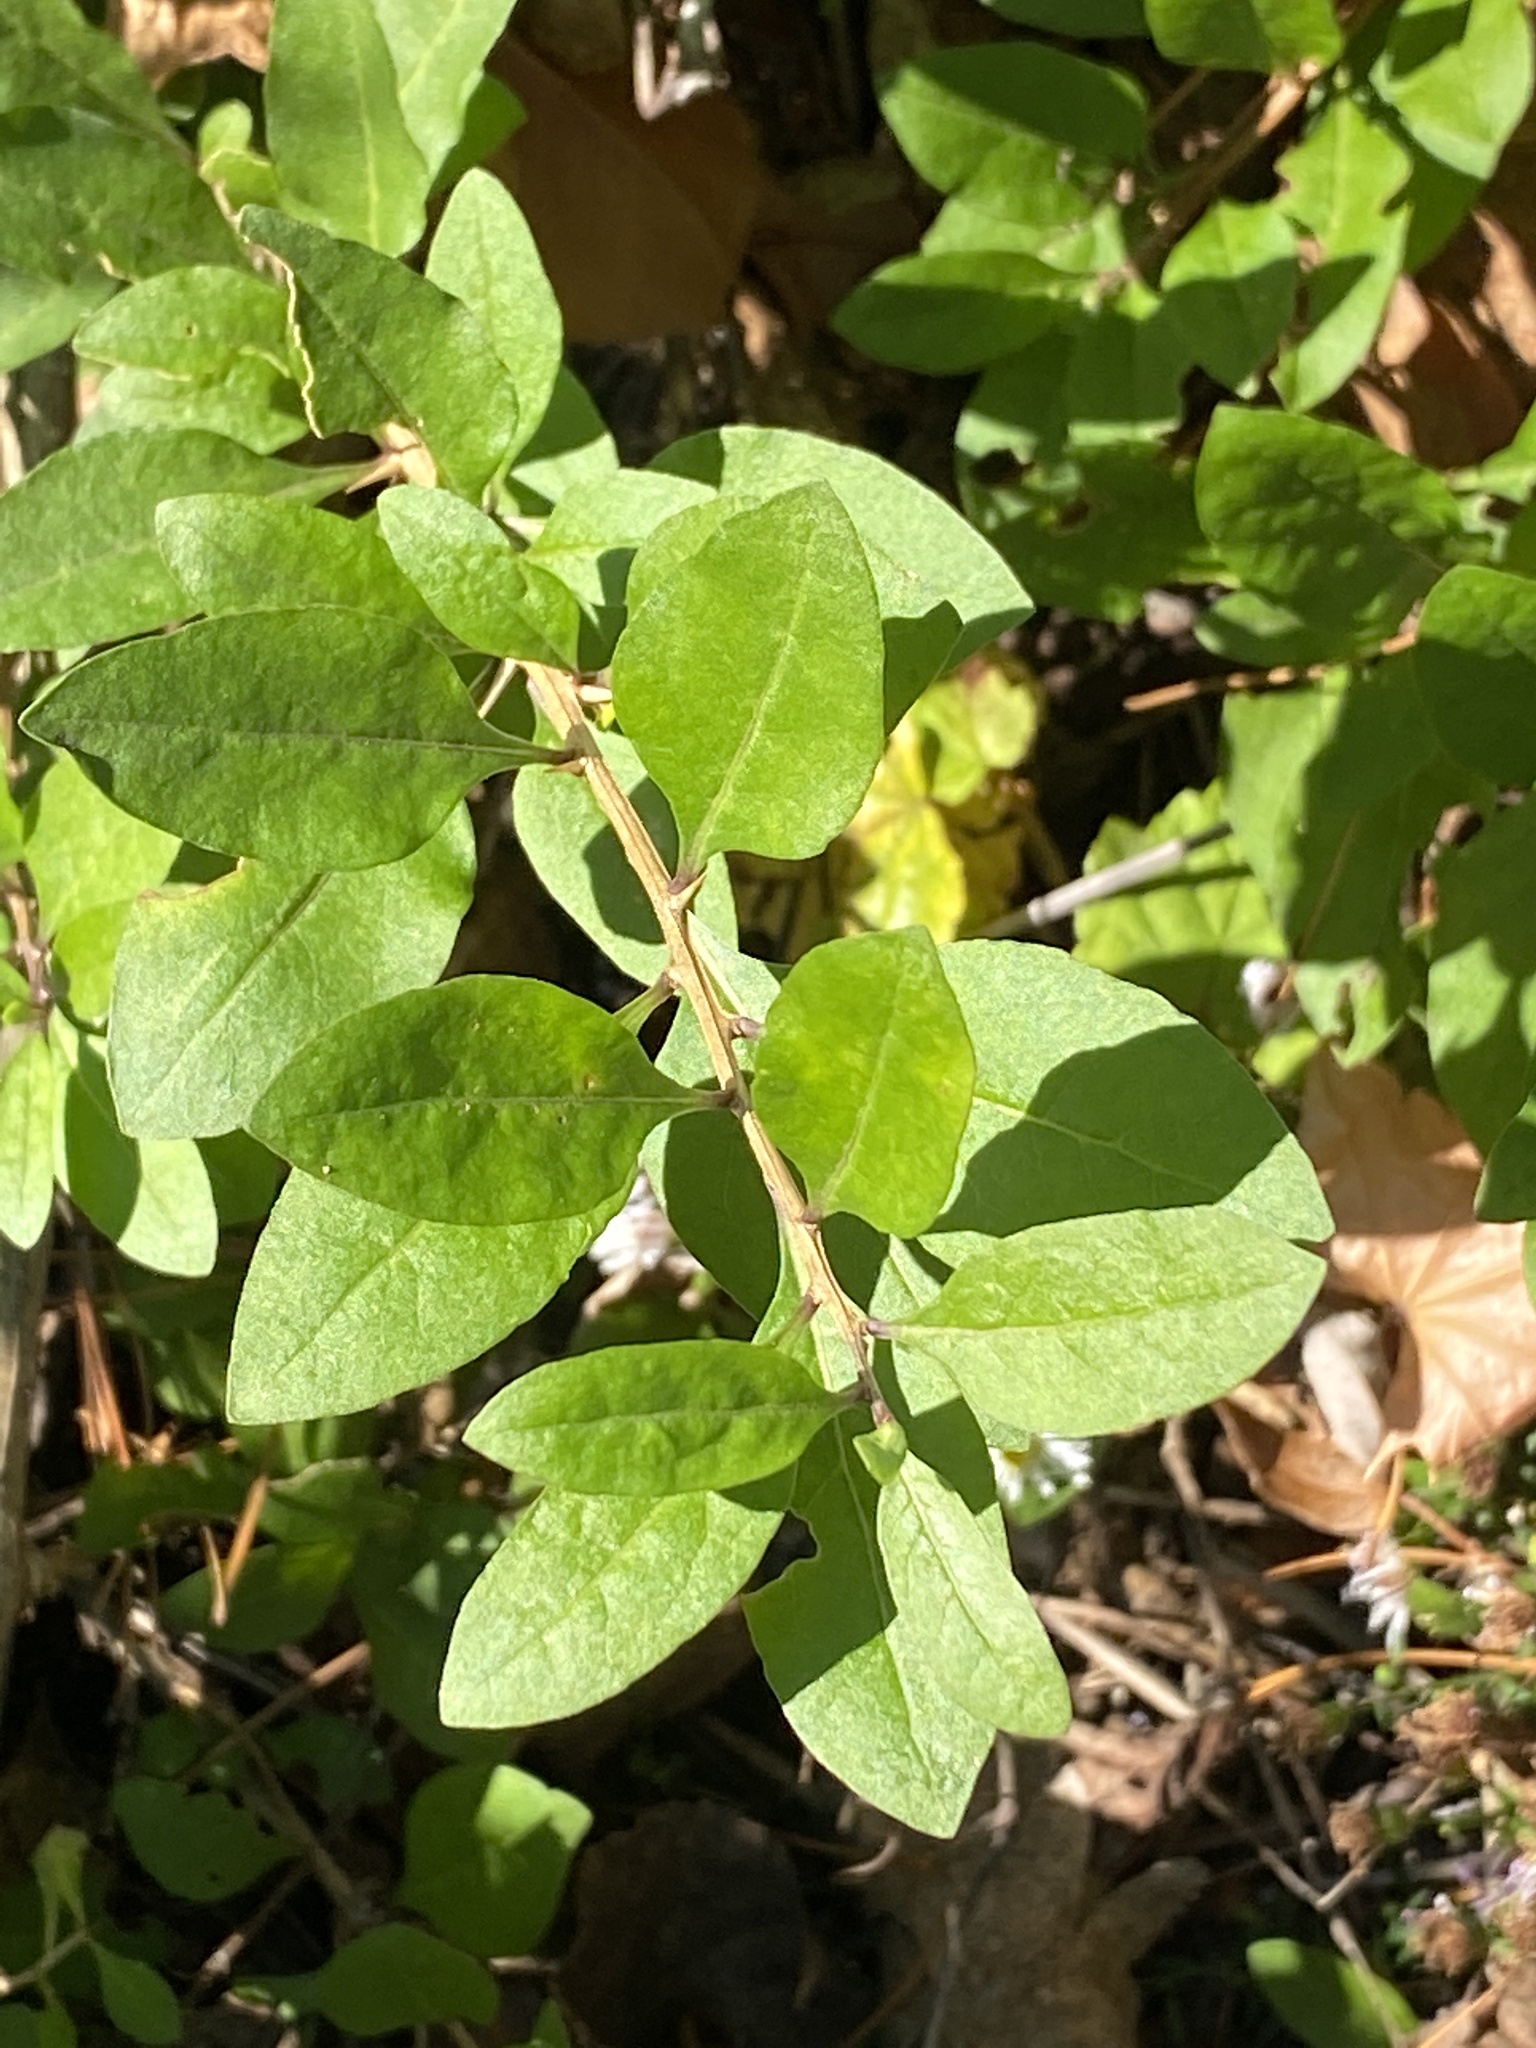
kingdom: Plantae
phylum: Tracheophyta
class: Magnoliopsida
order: Solanales
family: Solanaceae
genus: Lycium
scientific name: Lycium barbarum
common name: Duke of argyll's teaplant
